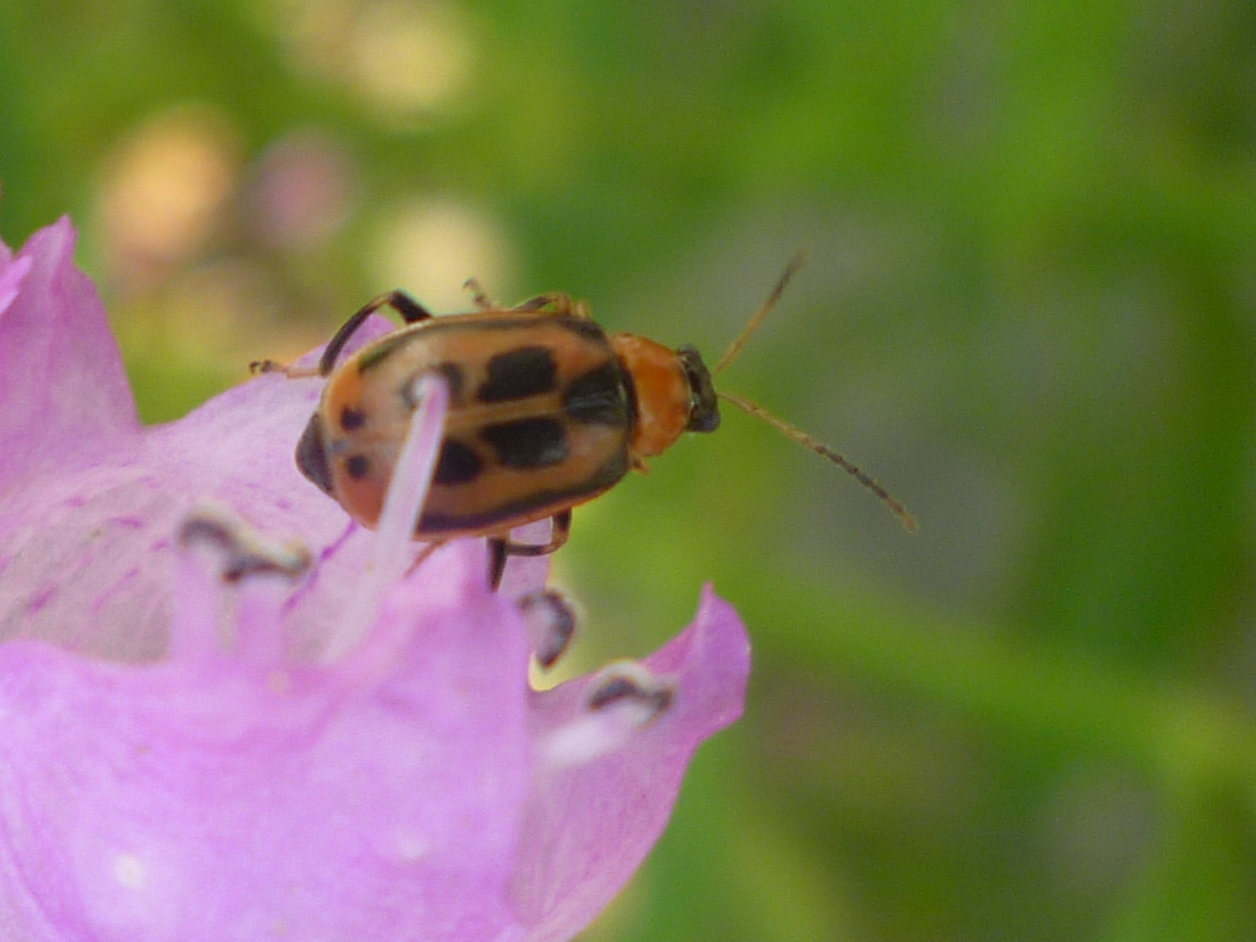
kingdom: Animalia
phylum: Arthropoda
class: Insecta
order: Coleoptera
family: Chrysomelidae
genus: Cerotoma
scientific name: Cerotoma trifurcata
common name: Bean leaf beetle
